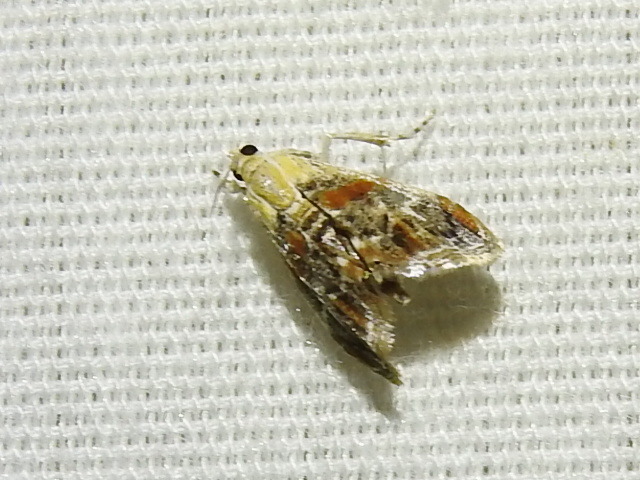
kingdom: Animalia
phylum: Arthropoda
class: Insecta
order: Lepidoptera
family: Crambidae
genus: Dicymolomia
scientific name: Dicymolomia julianalis
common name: Julia's dicymolomia moth
